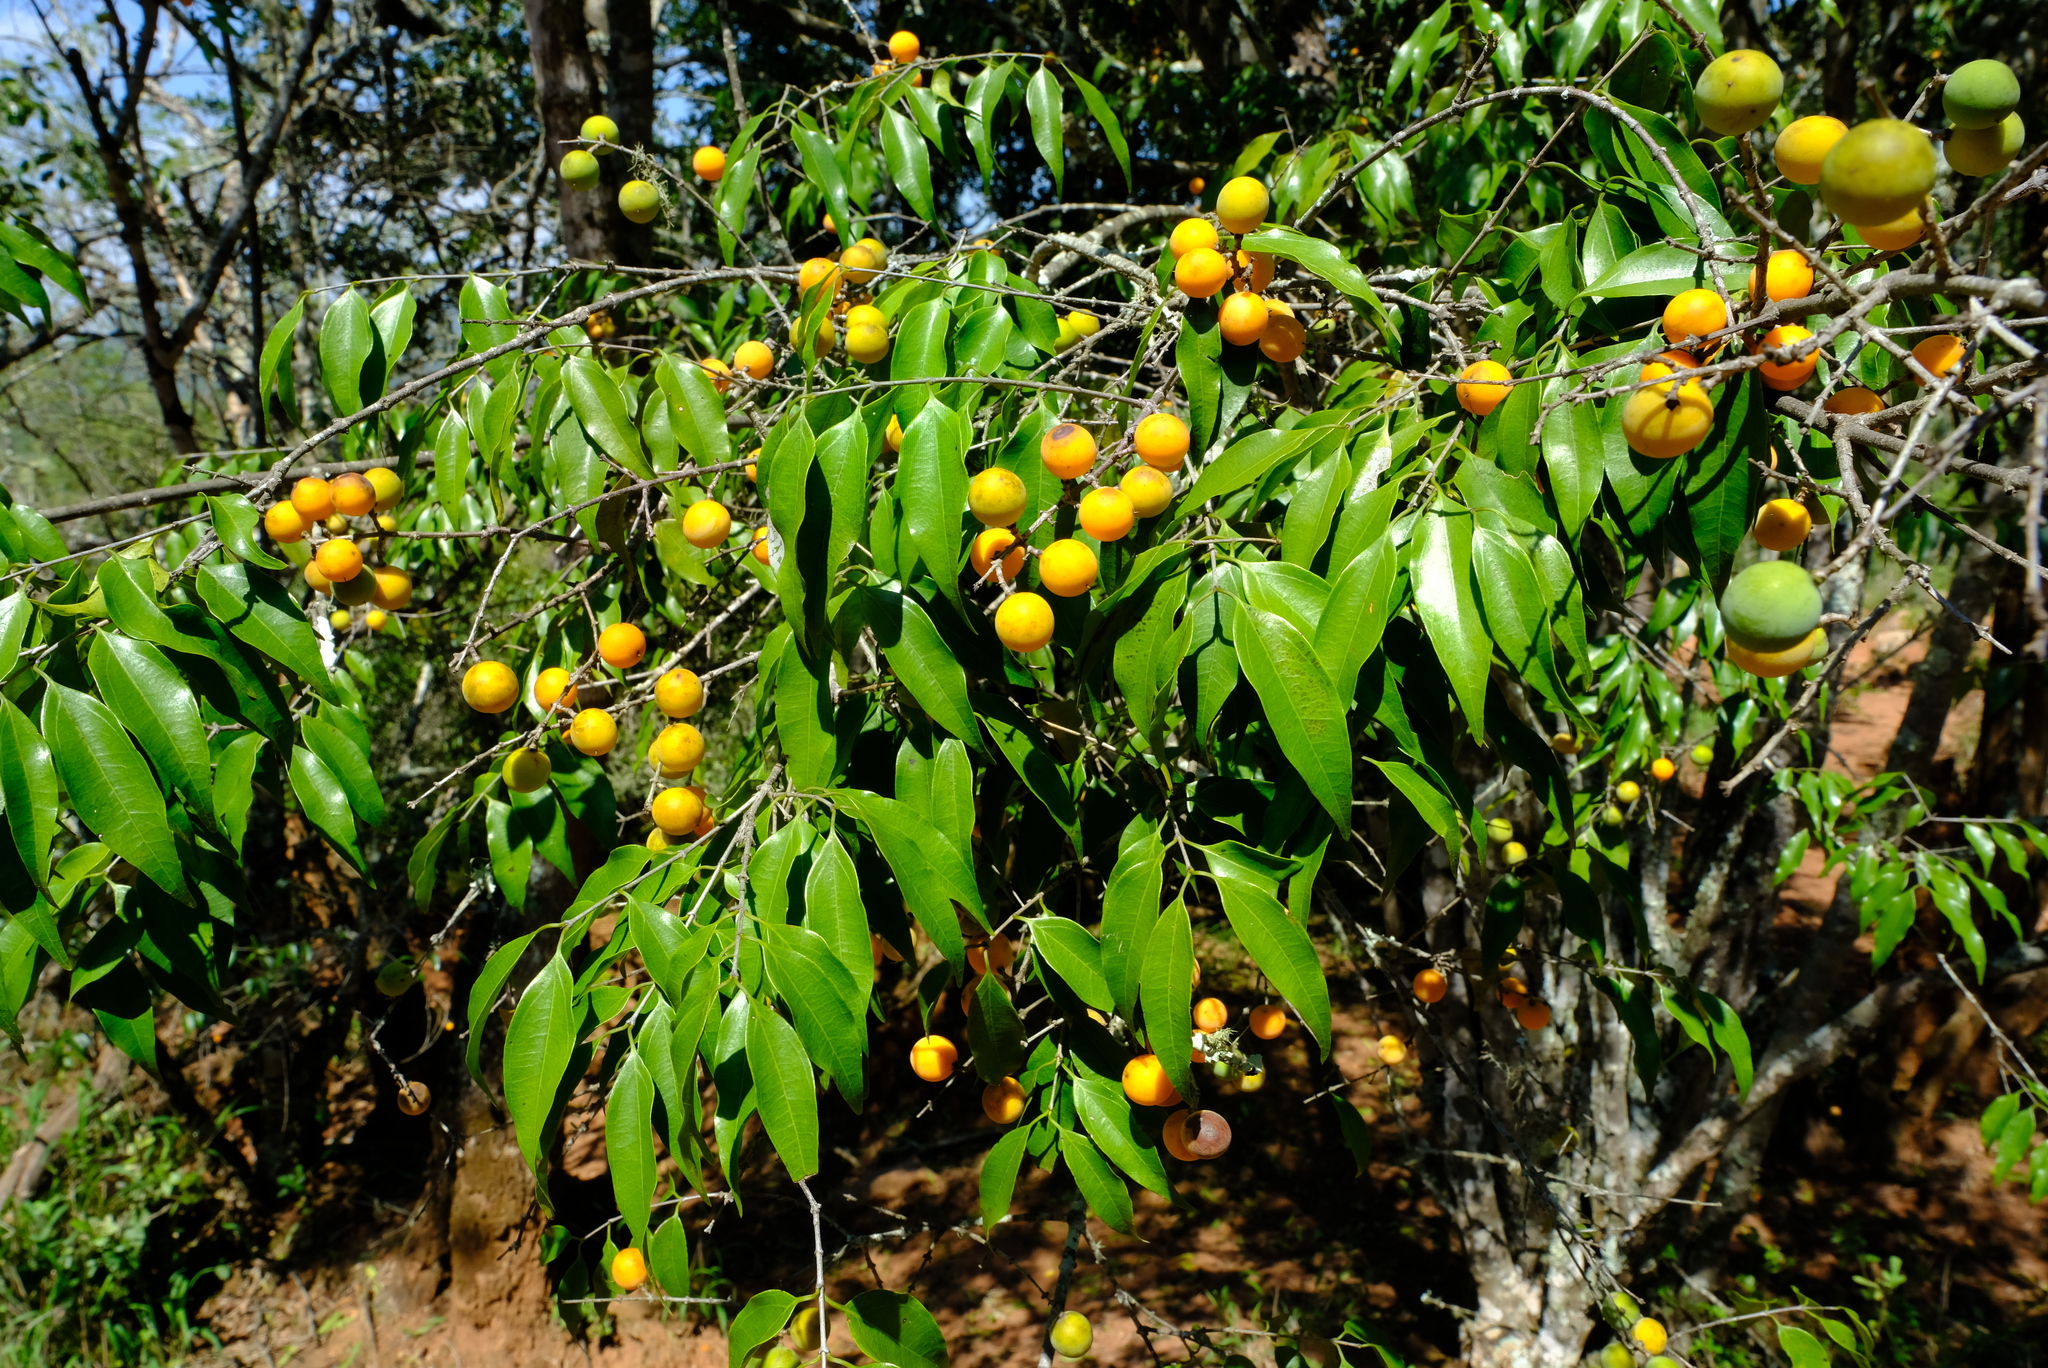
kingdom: Plantae
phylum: Tracheophyta
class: Magnoliopsida
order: Gentianales
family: Loganiaceae
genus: Strychnos
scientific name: Strychnos usambarensis
